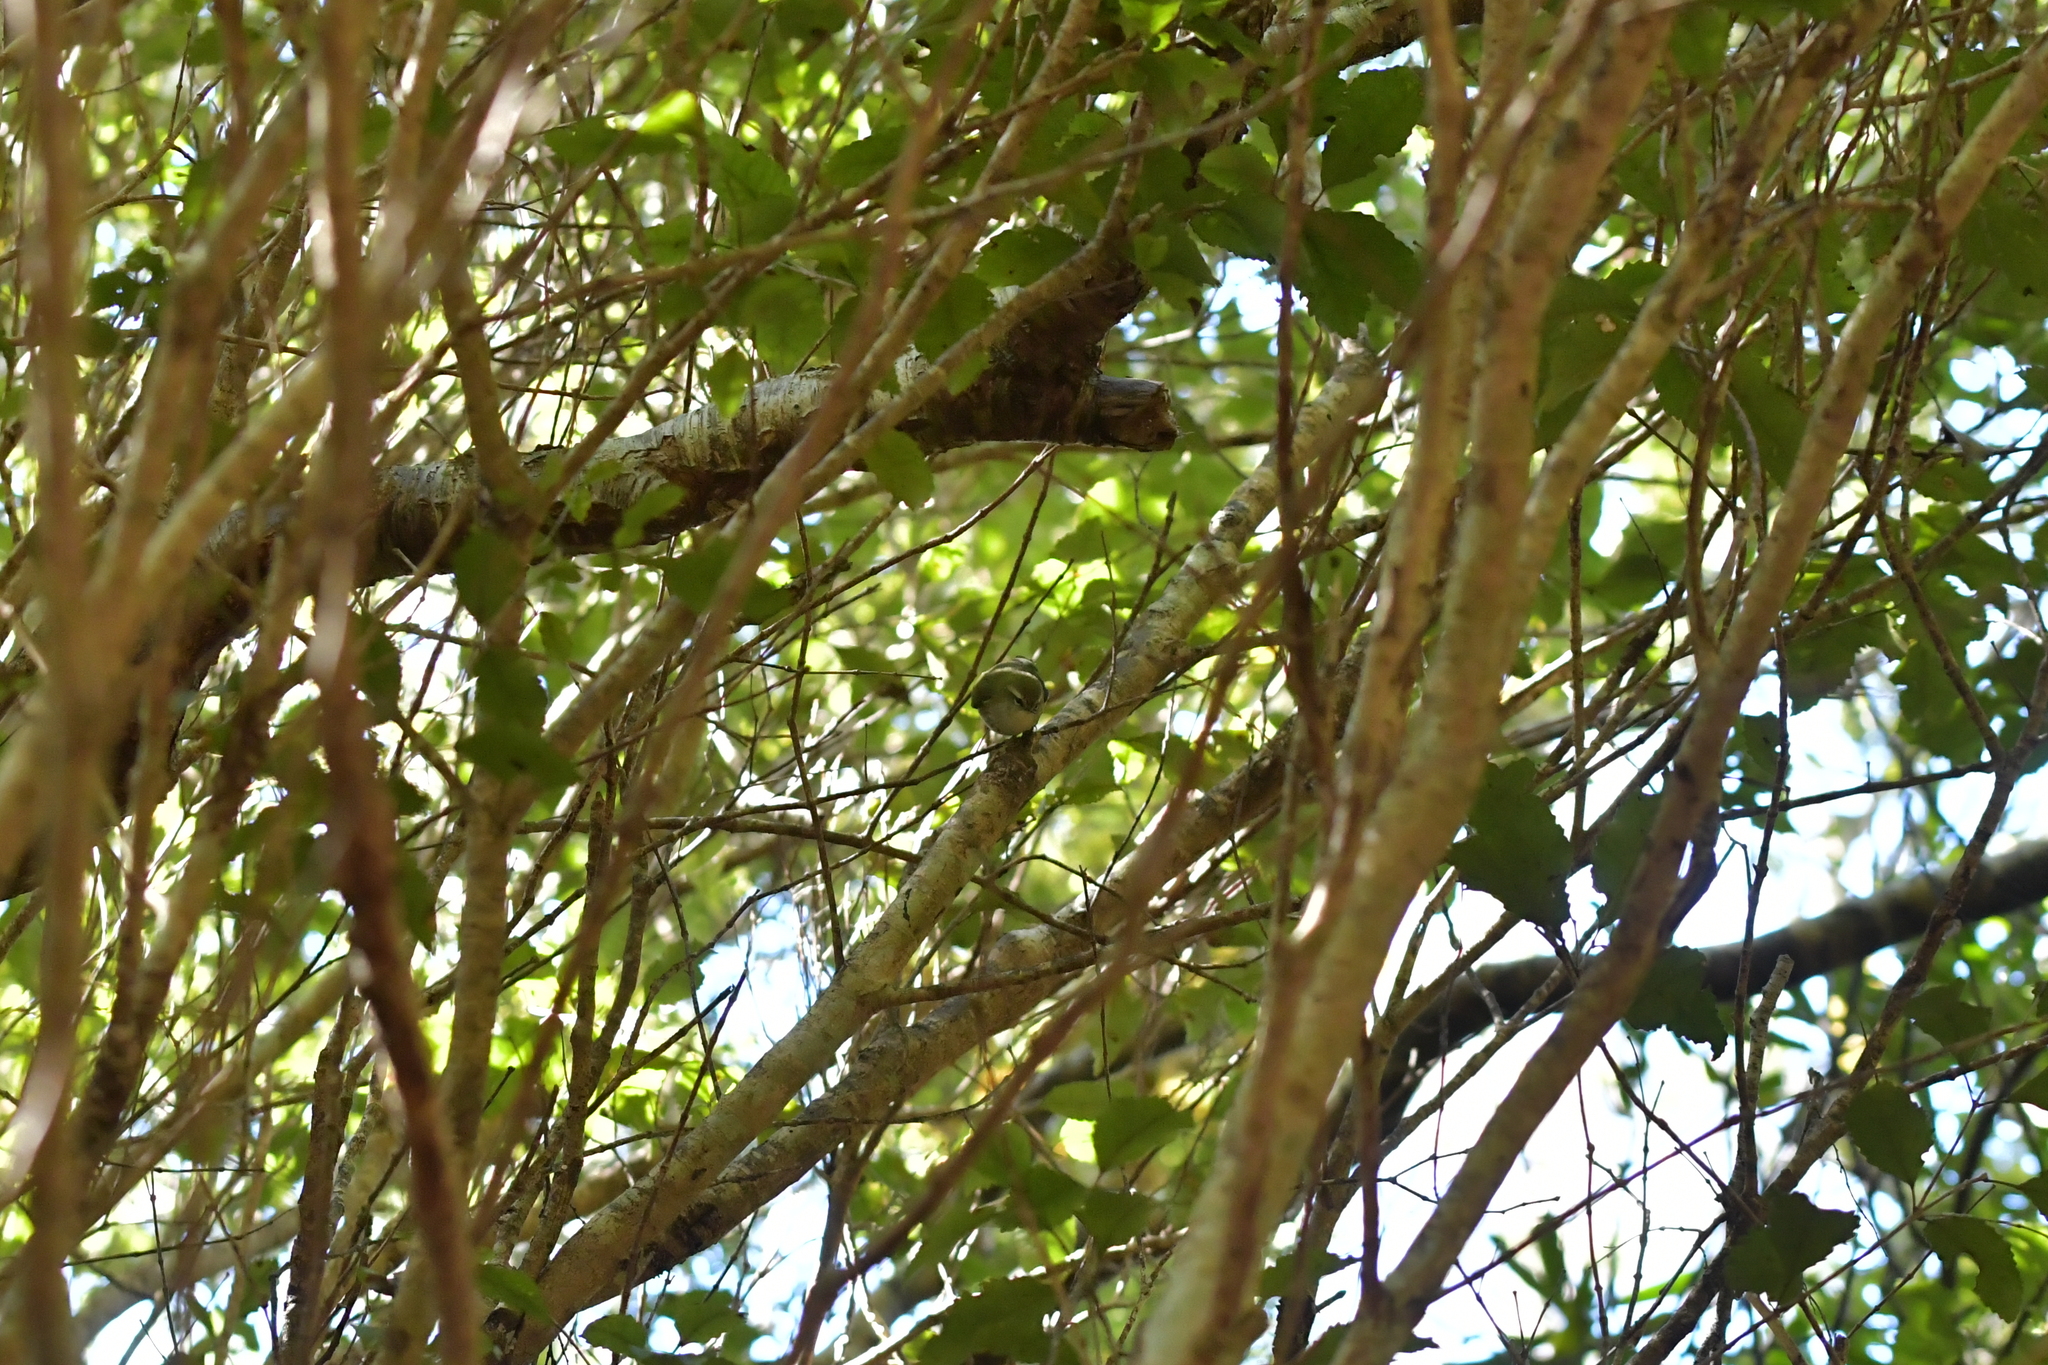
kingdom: Animalia
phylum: Chordata
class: Aves
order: Passeriformes
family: Acanthisittidae
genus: Acanthisitta
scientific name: Acanthisitta chloris
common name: Rifleman
